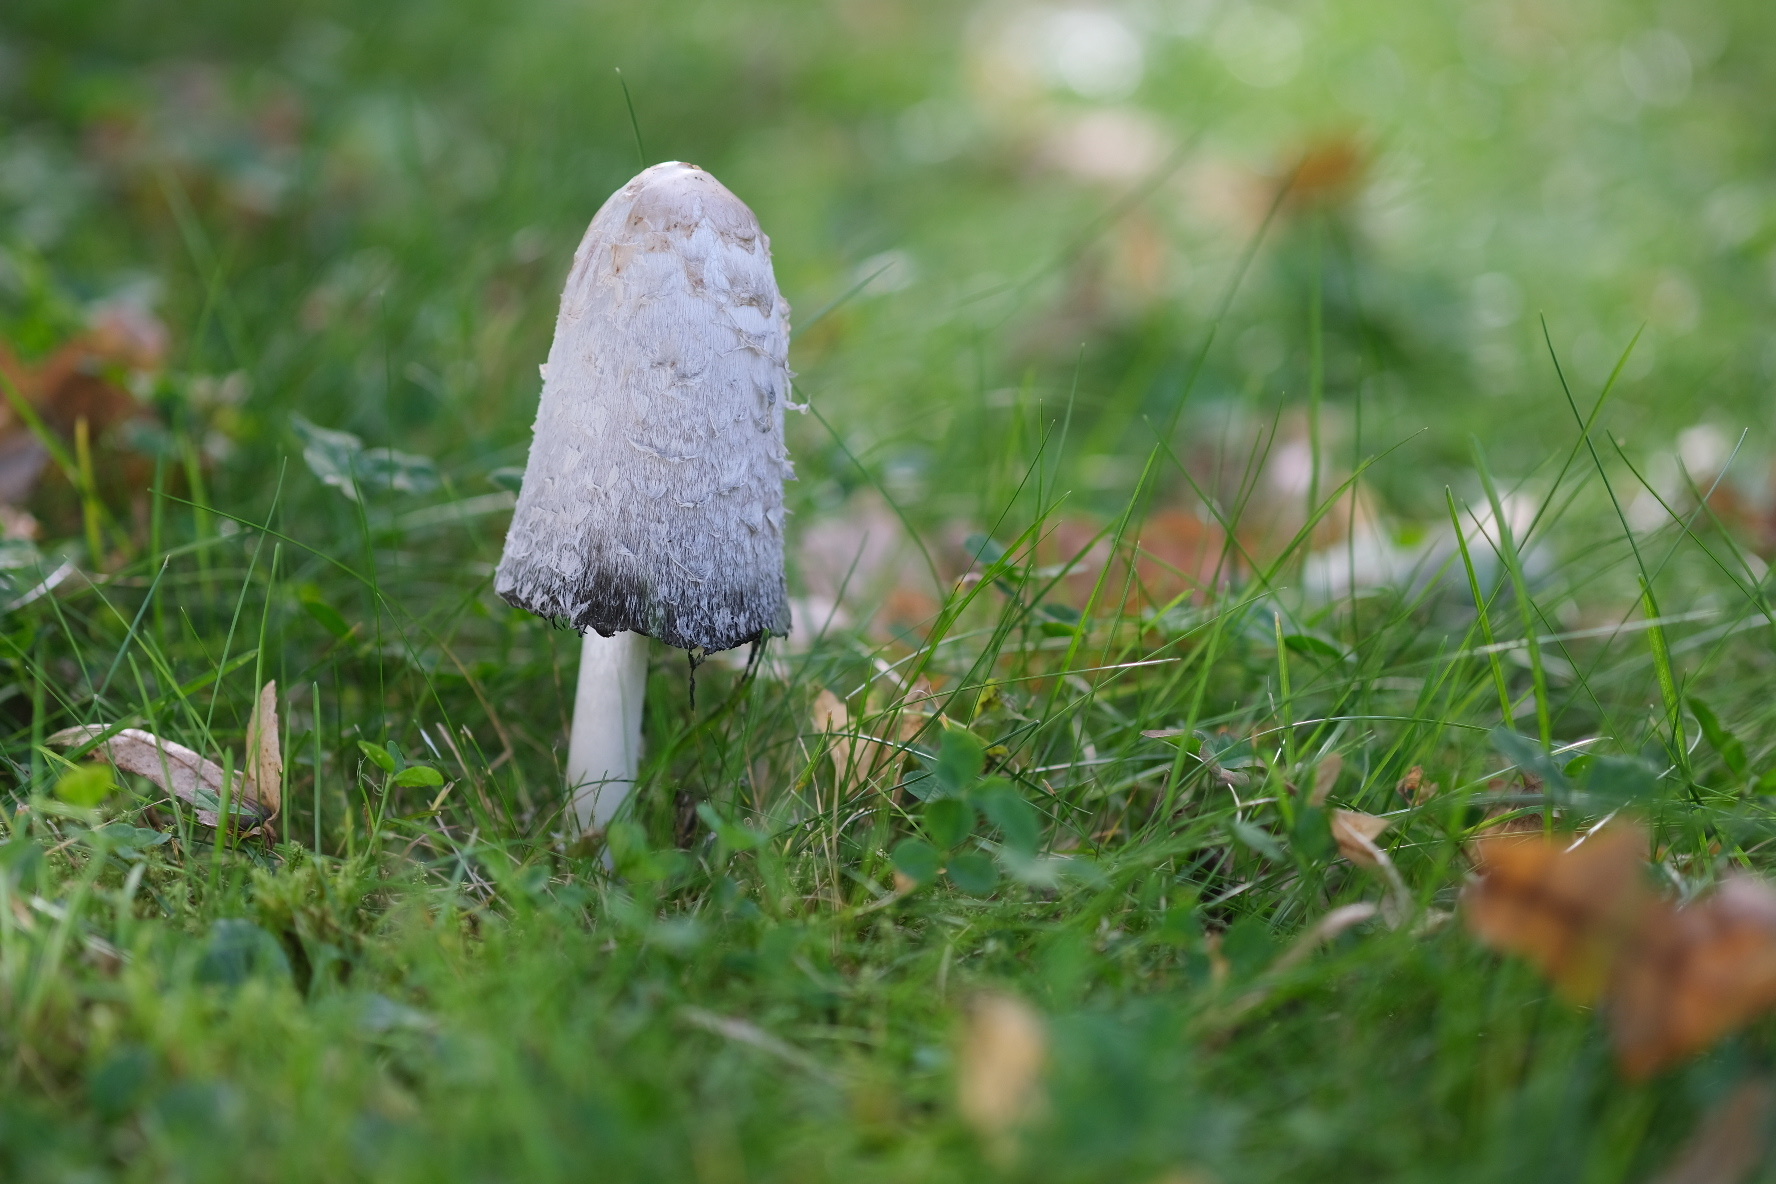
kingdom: Fungi
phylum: Basidiomycota
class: Agaricomycetes
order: Agaricales
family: Agaricaceae
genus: Coprinus
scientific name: Coprinus comatus
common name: Lawyer's wig
